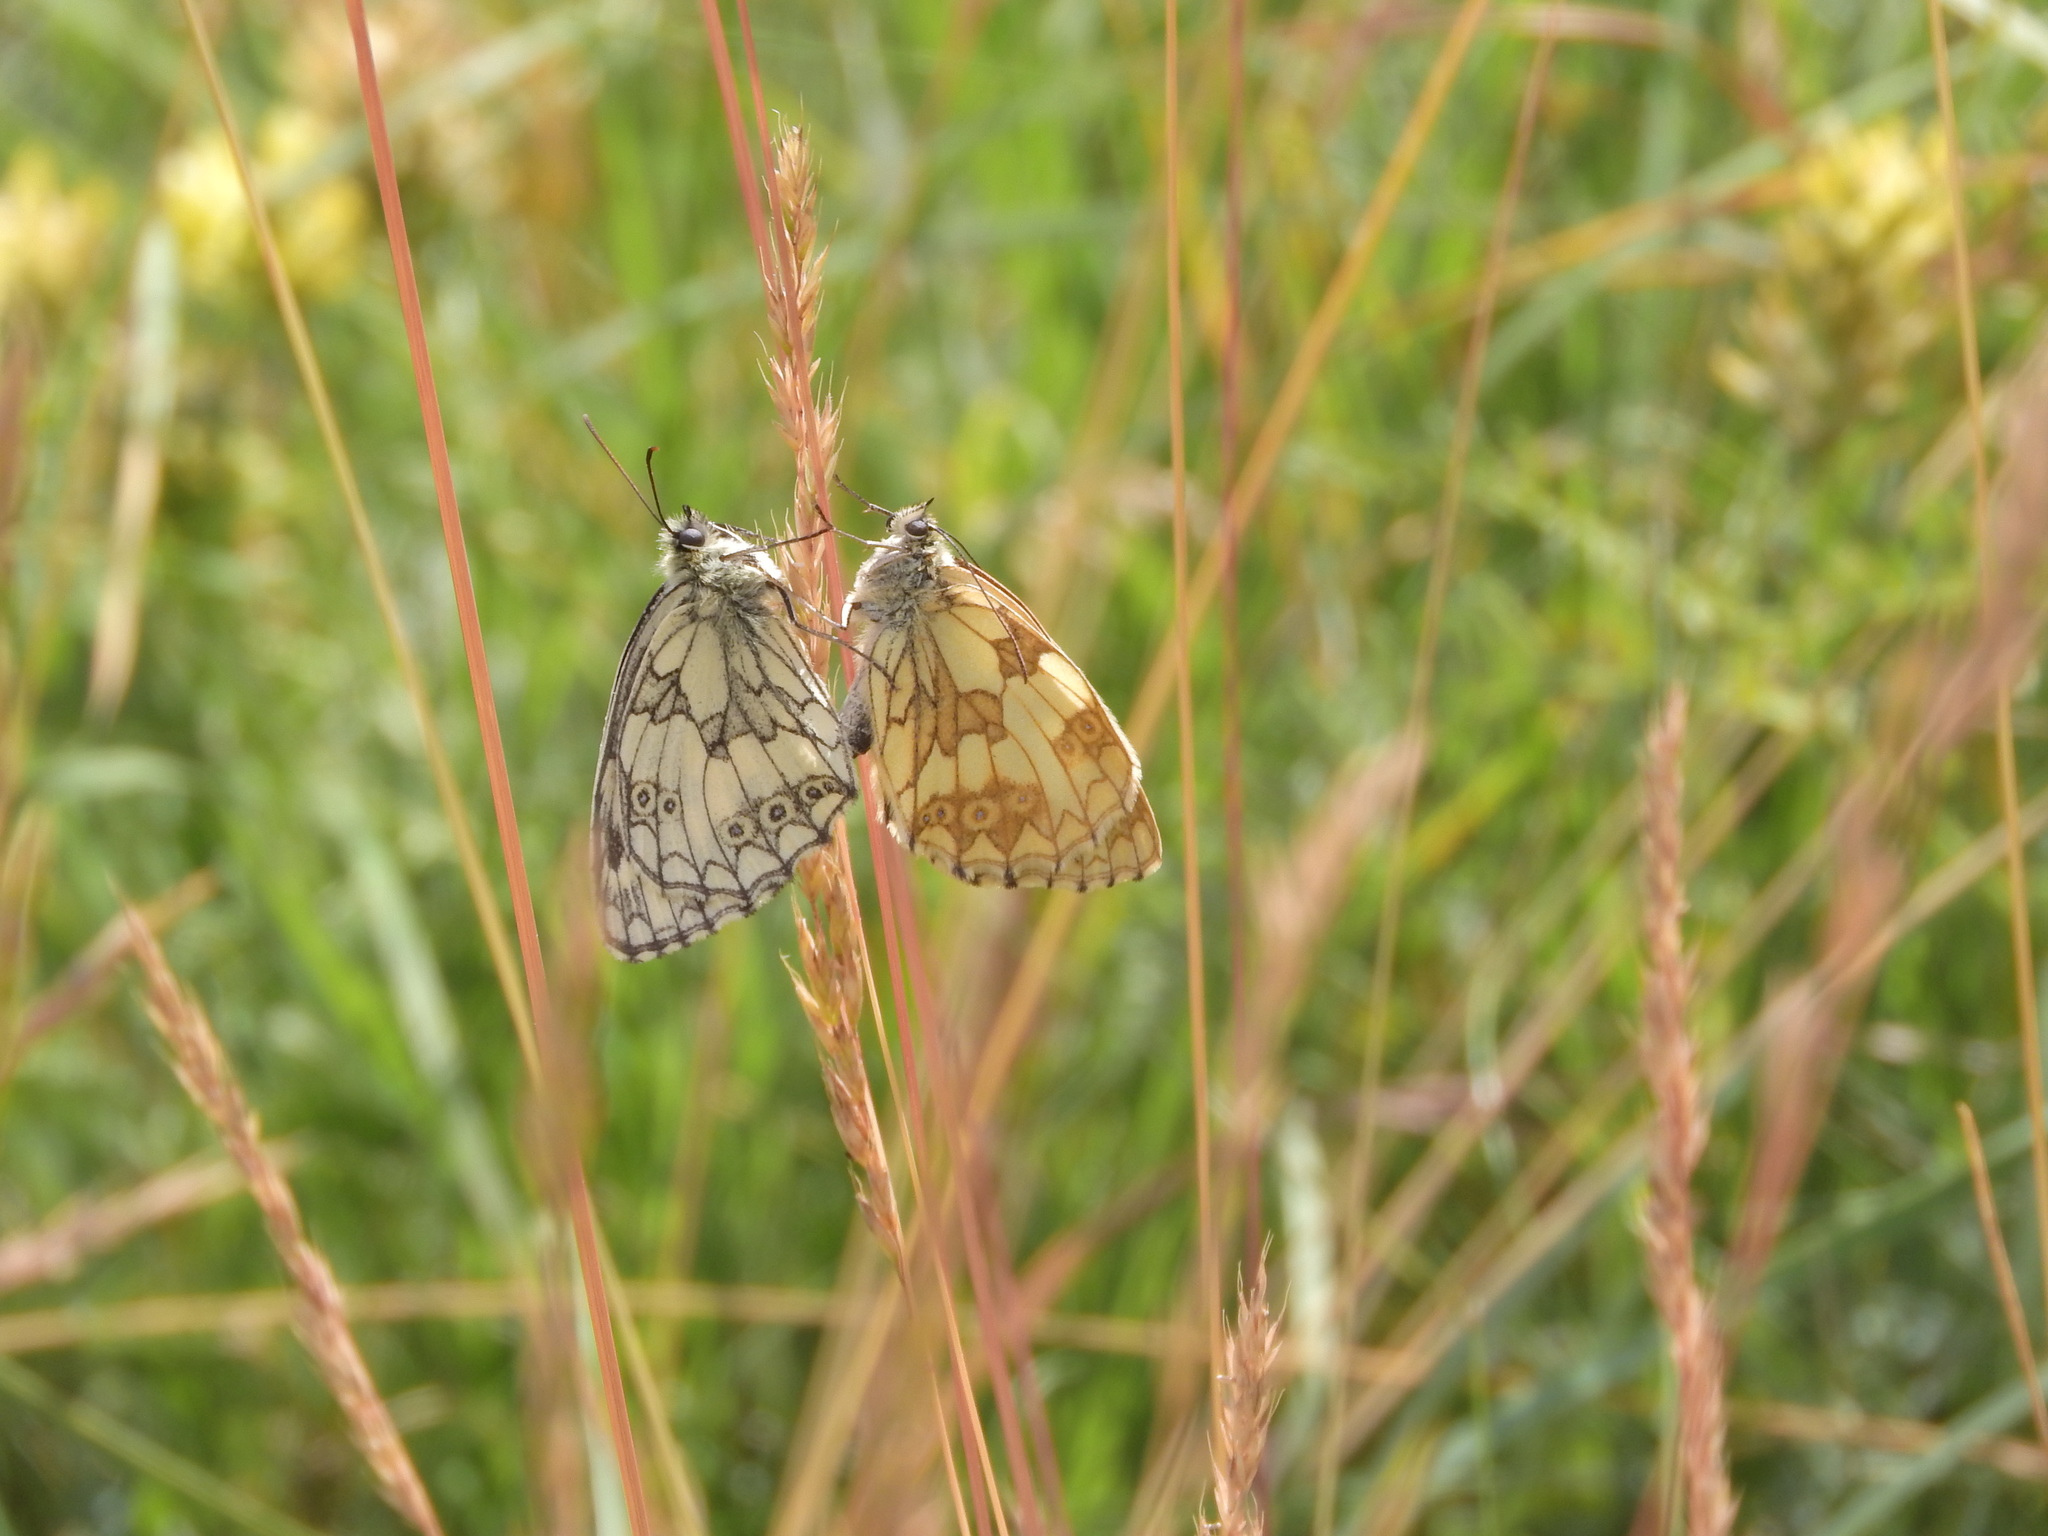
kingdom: Animalia
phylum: Arthropoda
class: Insecta
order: Lepidoptera
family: Nymphalidae
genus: Melanargia
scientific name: Melanargia galathea
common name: Marbled white
